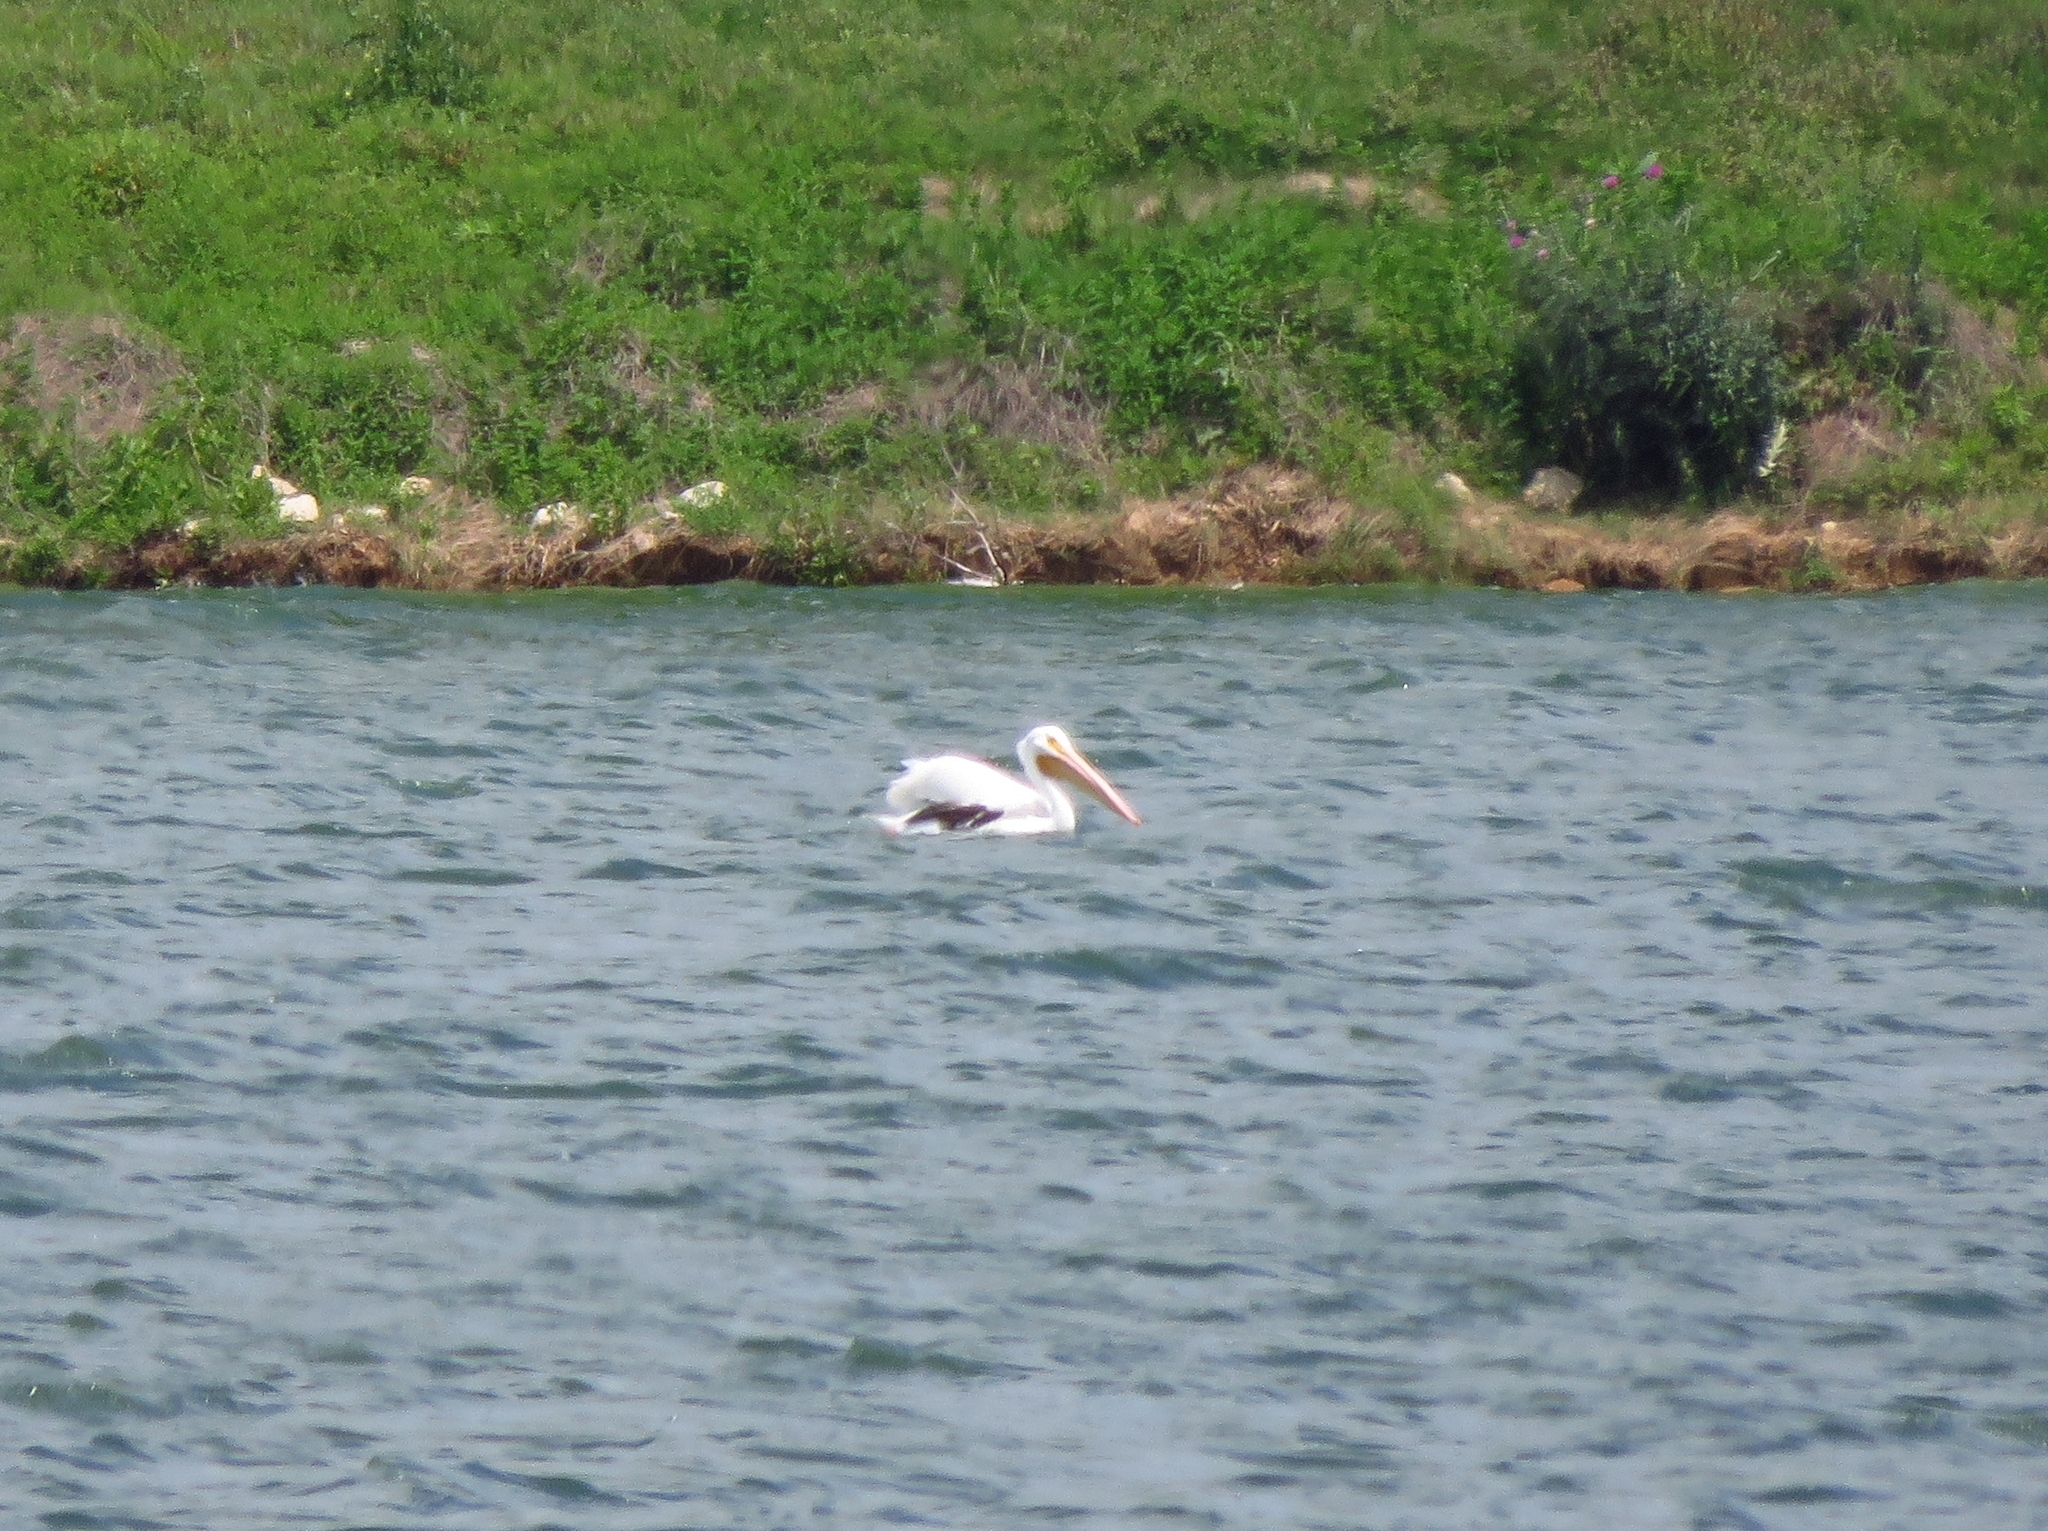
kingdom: Animalia
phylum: Chordata
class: Aves
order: Pelecaniformes
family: Pelecanidae
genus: Pelecanus
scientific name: Pelecanus erythrorhynchos
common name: American white pelican
